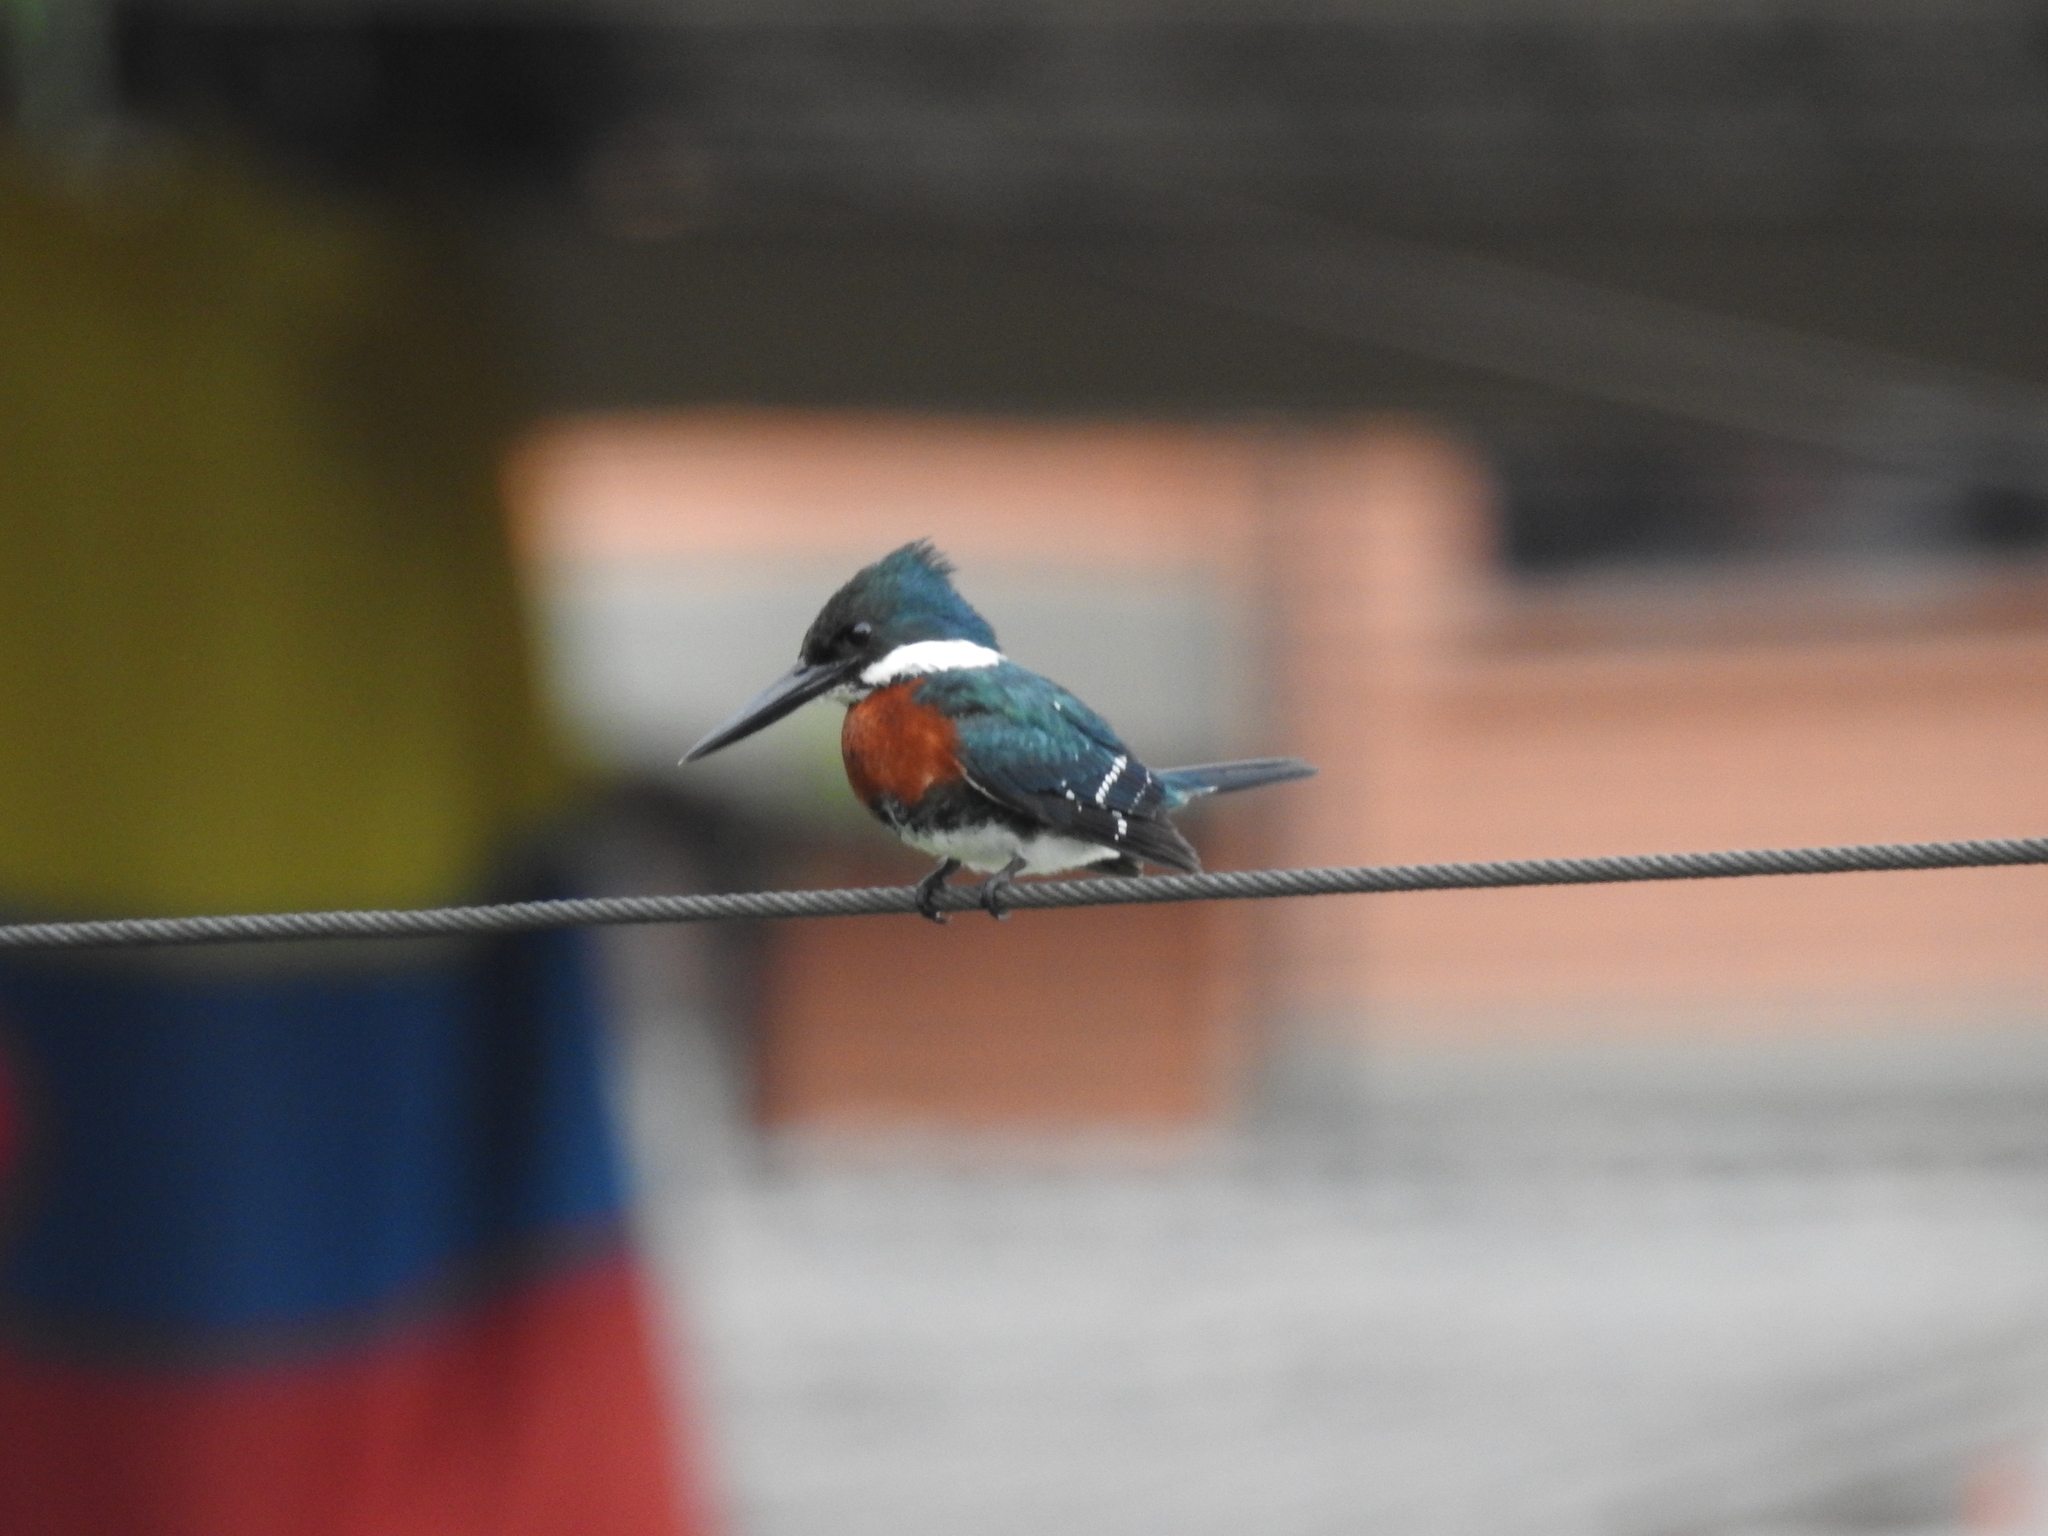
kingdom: Animalia
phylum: Chordata
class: Aves
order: Coraciiformes
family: Alcedinidae
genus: Chloroceryle
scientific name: Chloroceryle americana
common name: Green kingfisher
